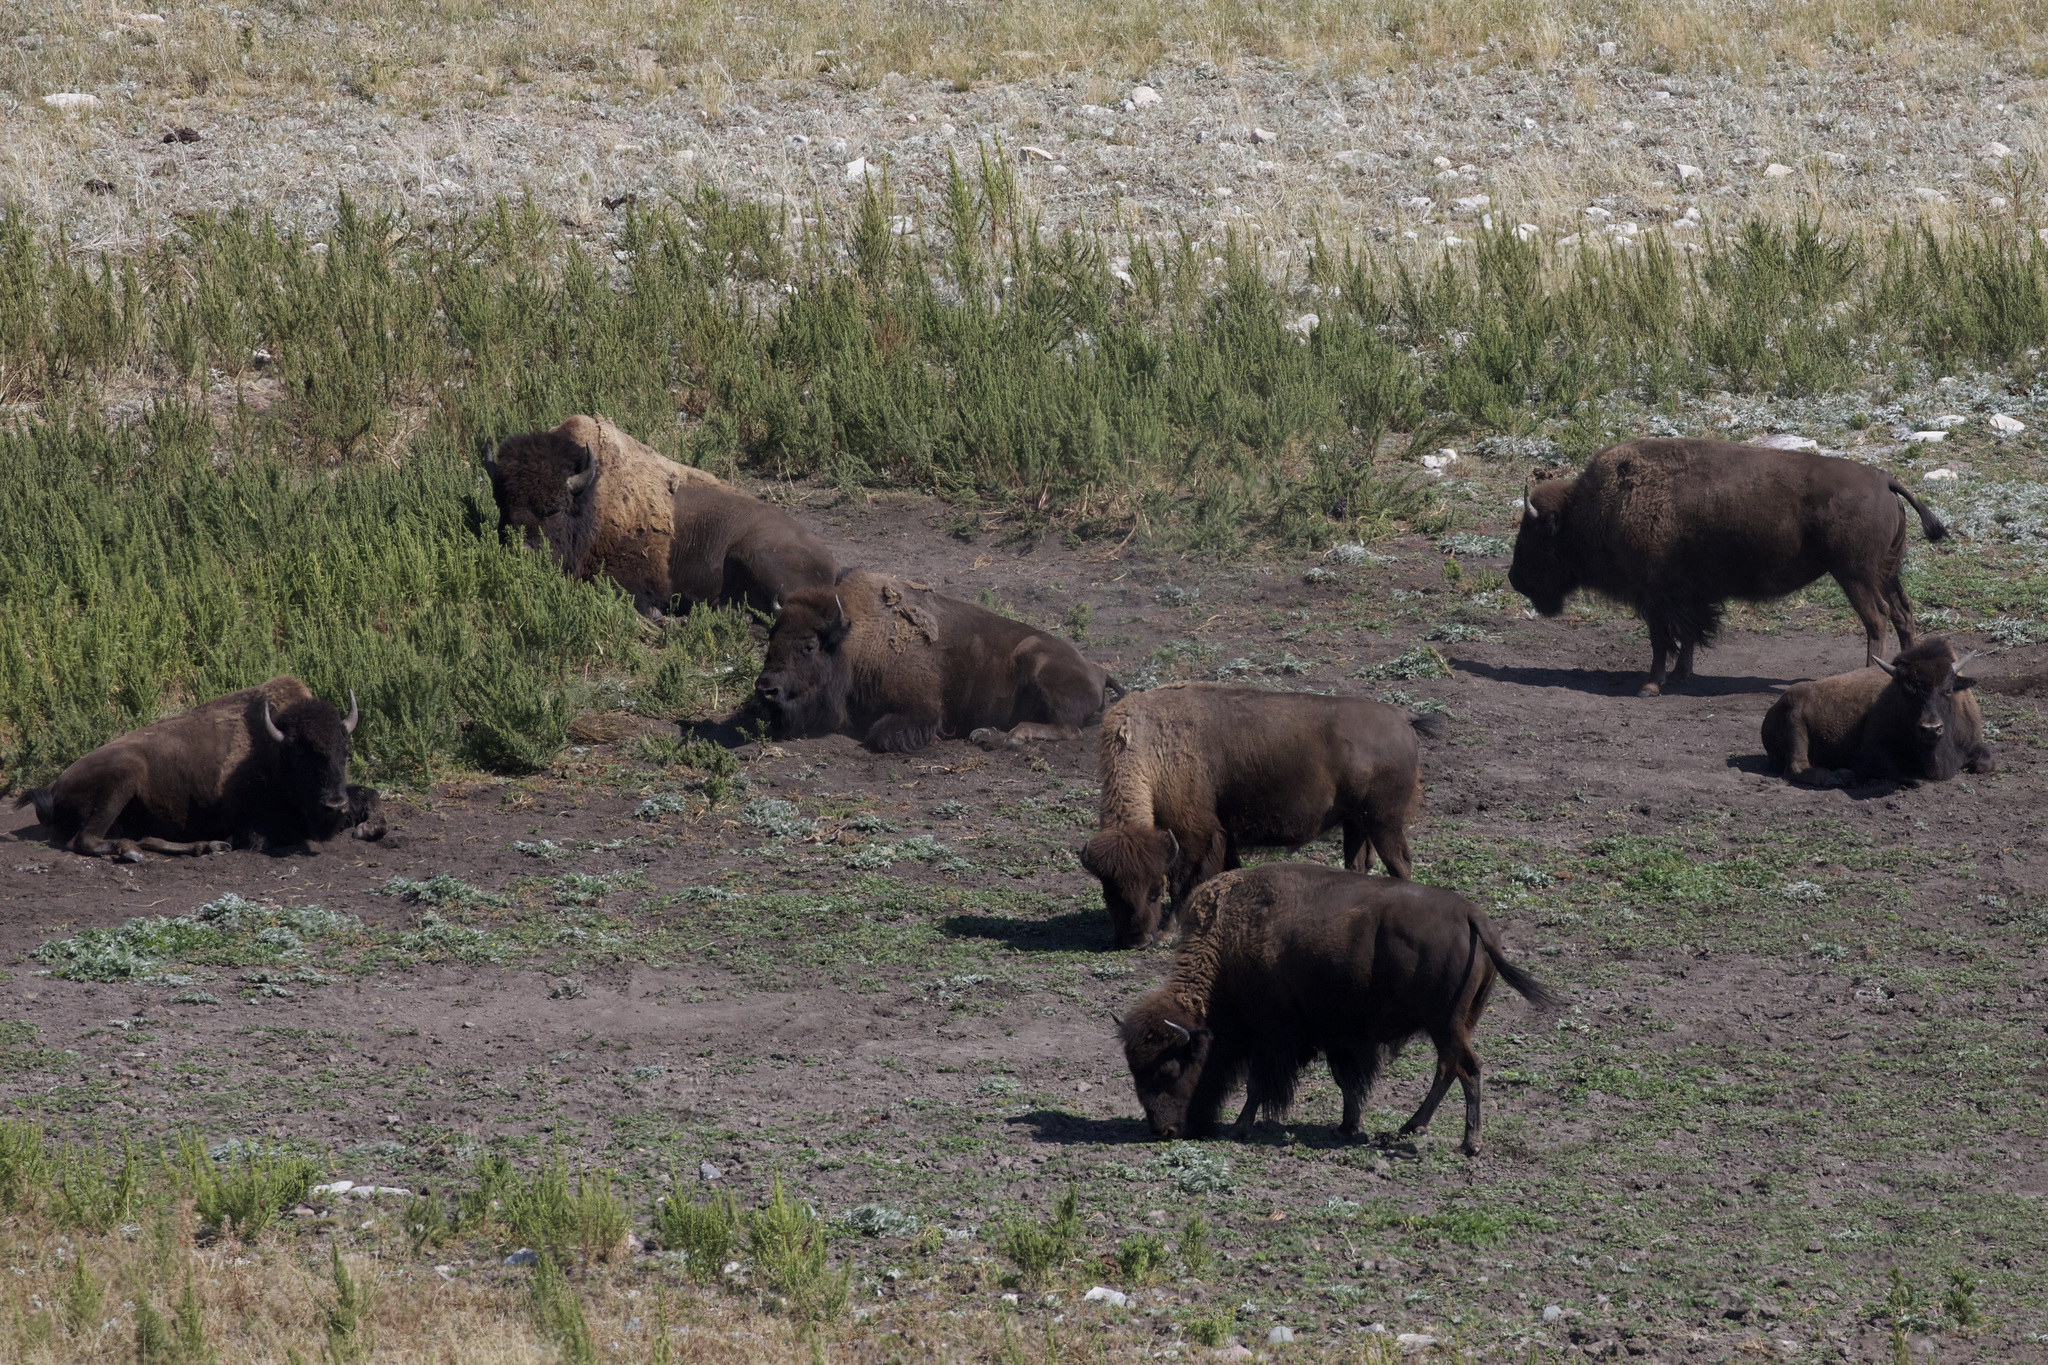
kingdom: Animalia
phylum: Chordata
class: Mammalia
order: Artiodactyla
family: Bovidae
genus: Bison
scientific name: Bison bison
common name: American bison
